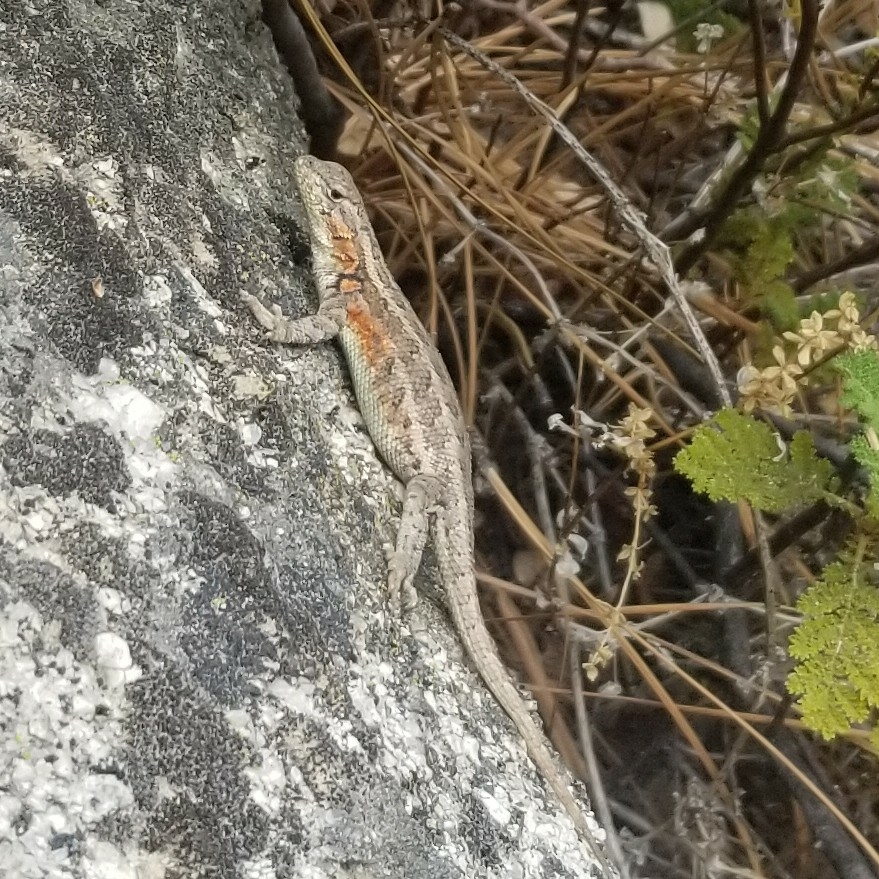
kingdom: Animalia
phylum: Chordata
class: Squamata
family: Phrynosomatidae
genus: Sceloporus
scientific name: Sceloporus graciosus
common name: Sagebrush lizard
